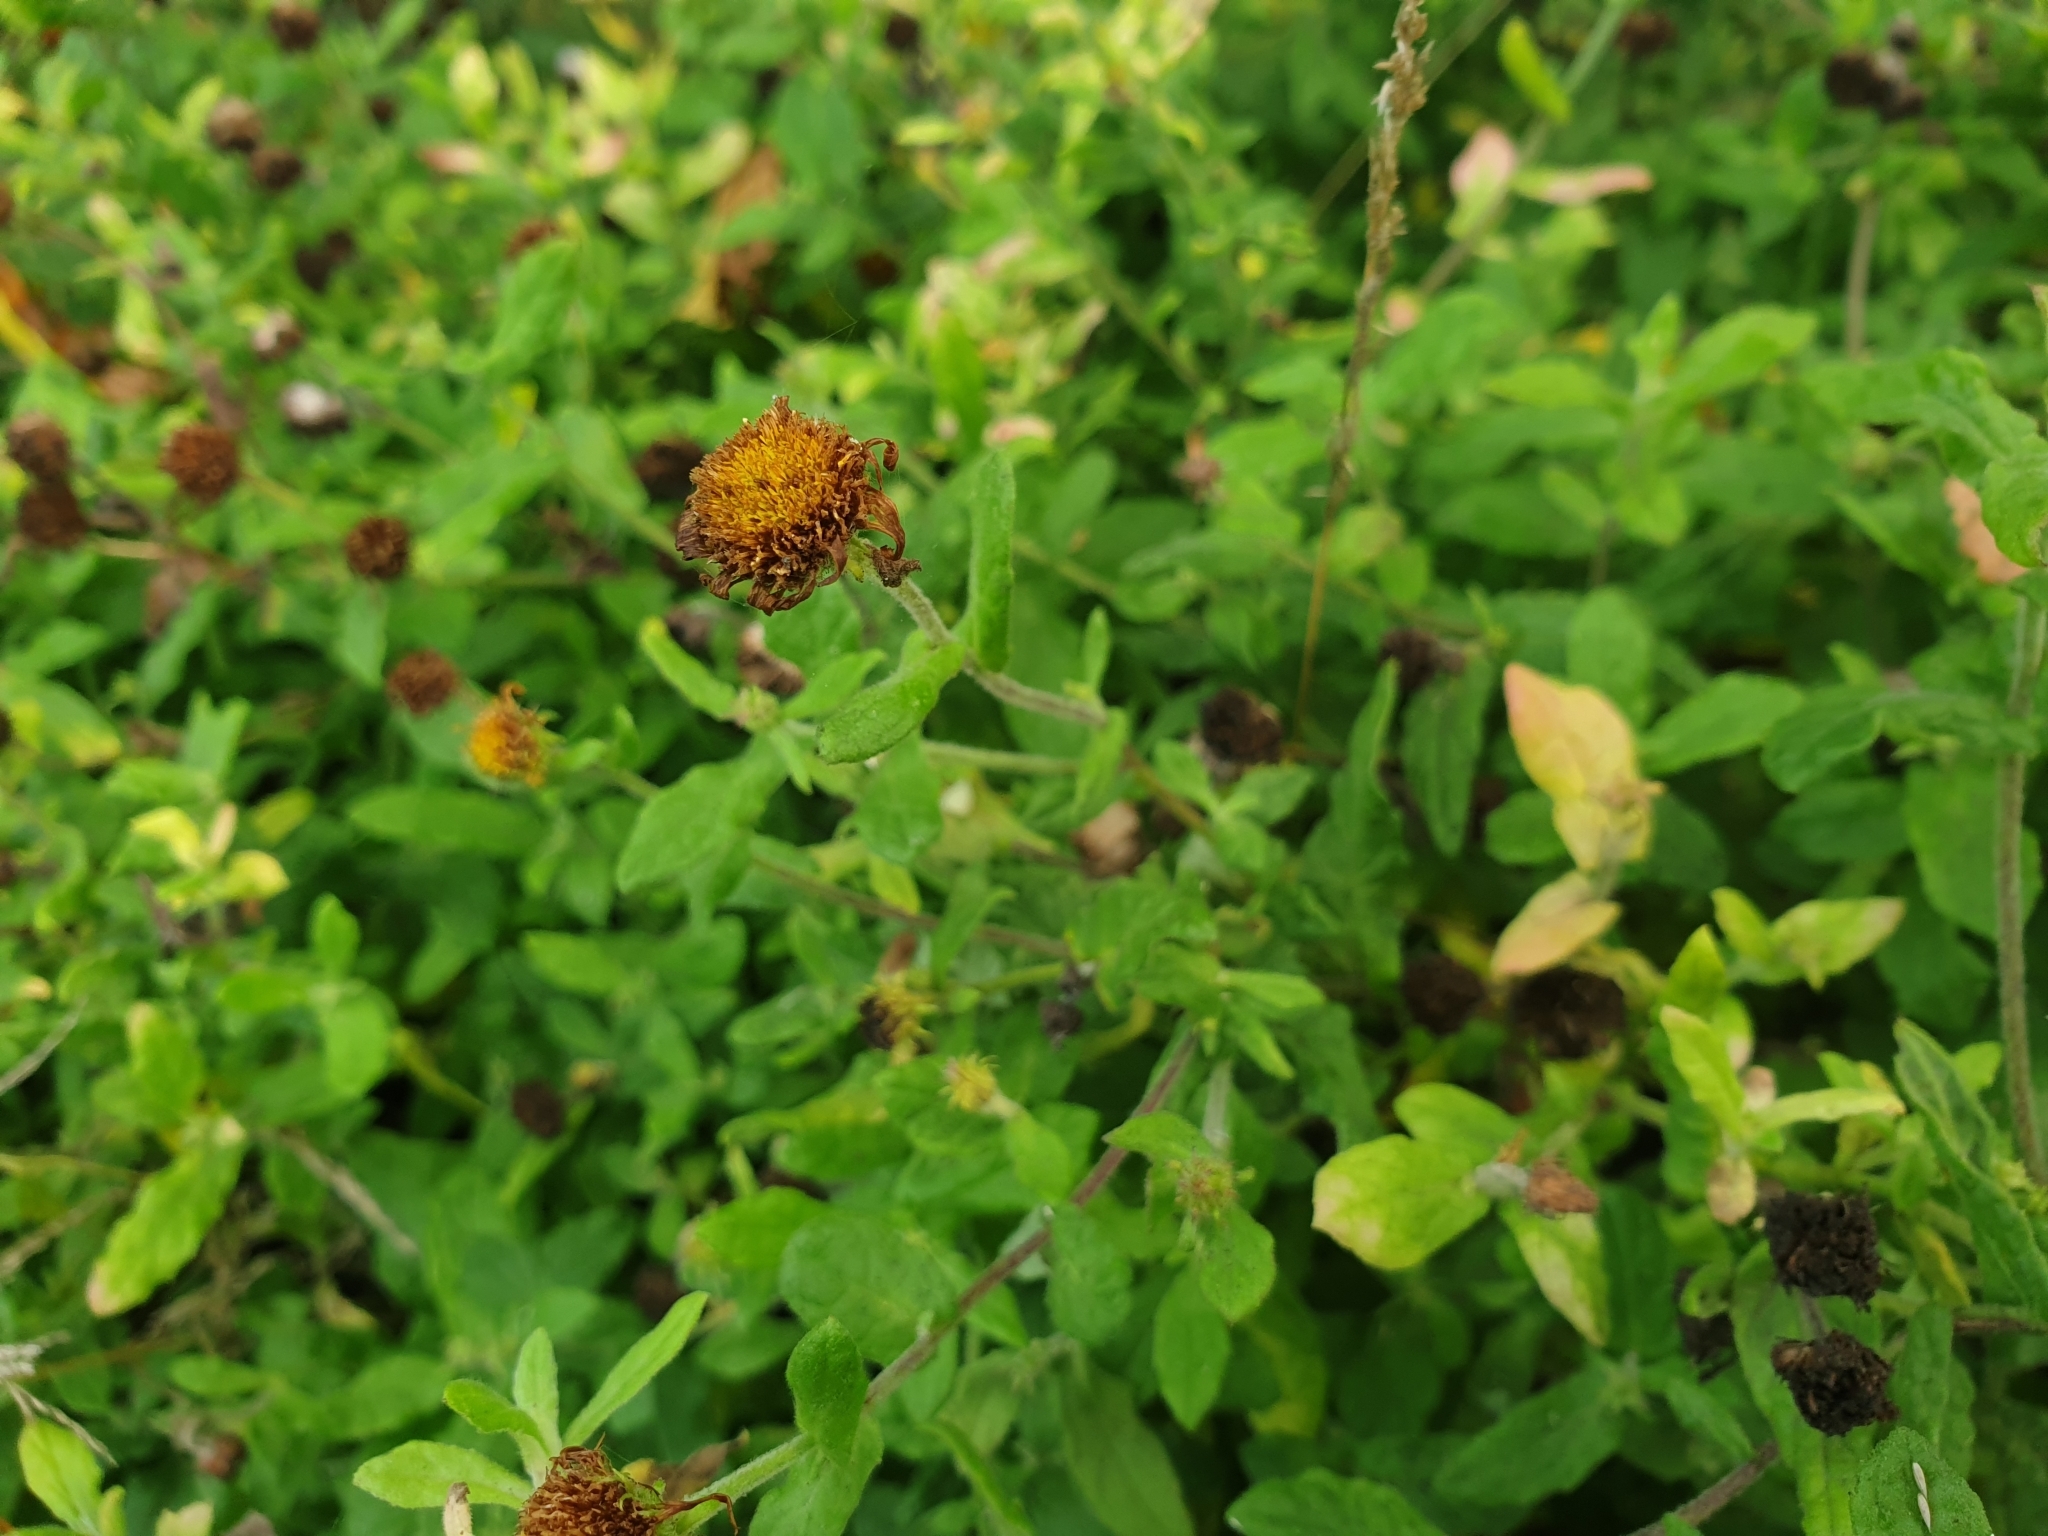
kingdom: Plantae
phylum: Tracheophyta
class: Magnoliopsida
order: Asterales
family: Asteraceae
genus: Pulicaria
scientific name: Pulicaria dysenterica
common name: Common fleabane
